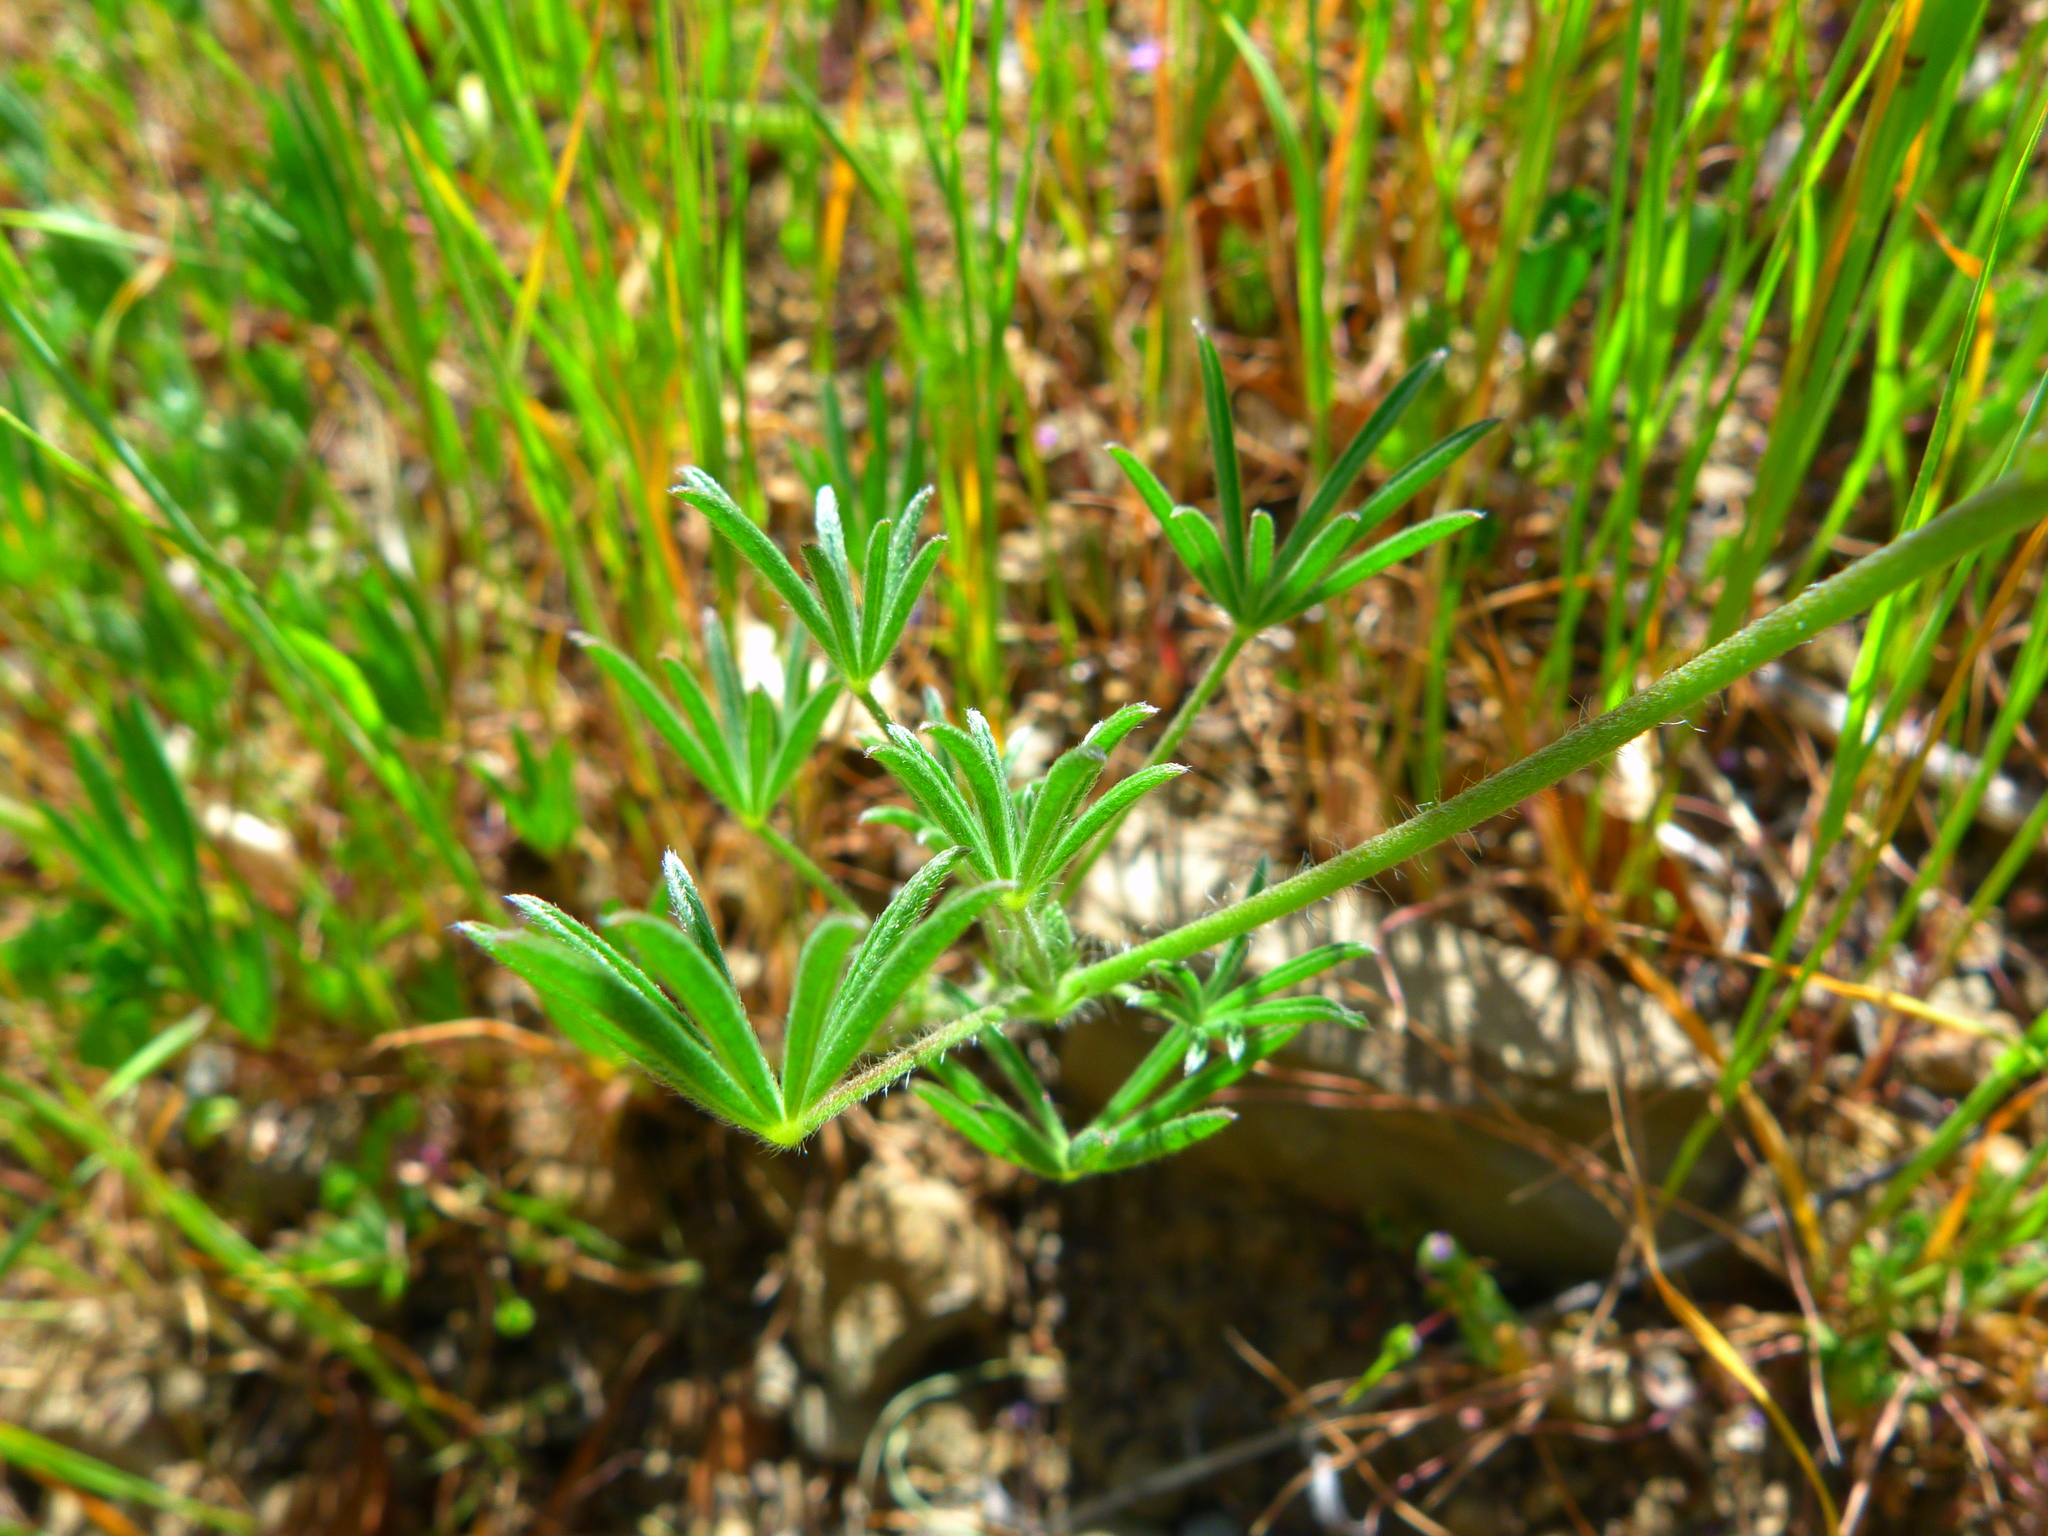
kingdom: Plantae
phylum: Tracheophyta
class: Magnoliopsida
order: Fabales
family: Fabaceae
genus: Lupinus
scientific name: Lupinus bicolor
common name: Miniature lupine
